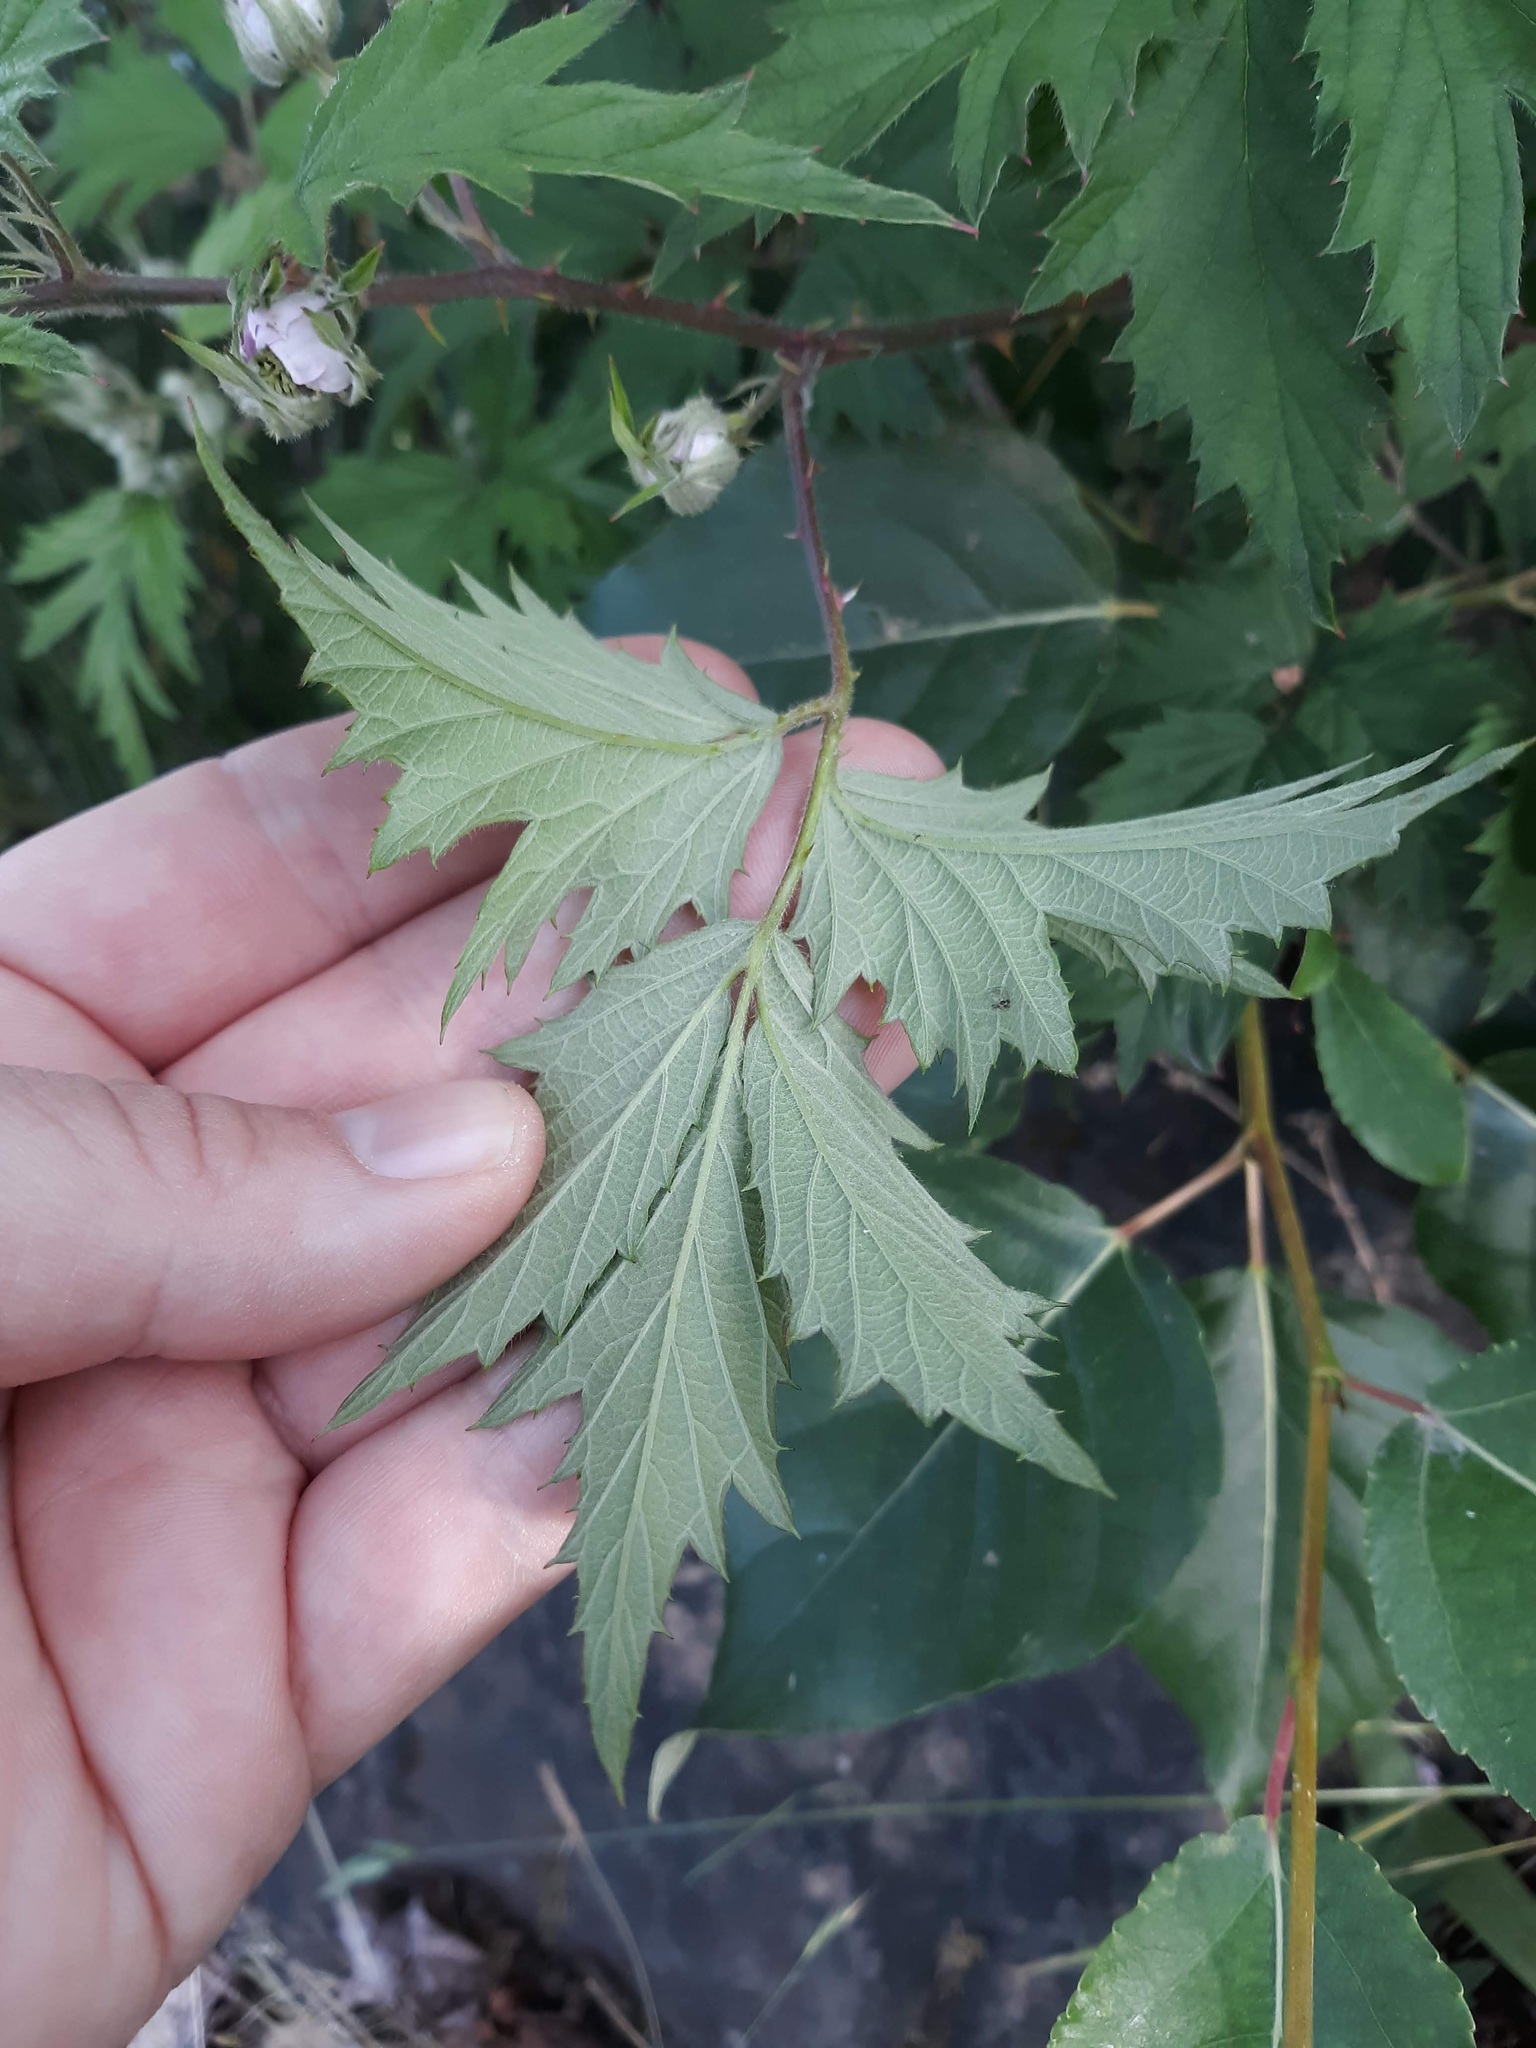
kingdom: Plantae
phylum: Tracheophyta
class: Magnoliopsida
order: Rosales
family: Rosaceae
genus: Rubus
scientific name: Rubus laciniatus
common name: Evergreen blackberry
